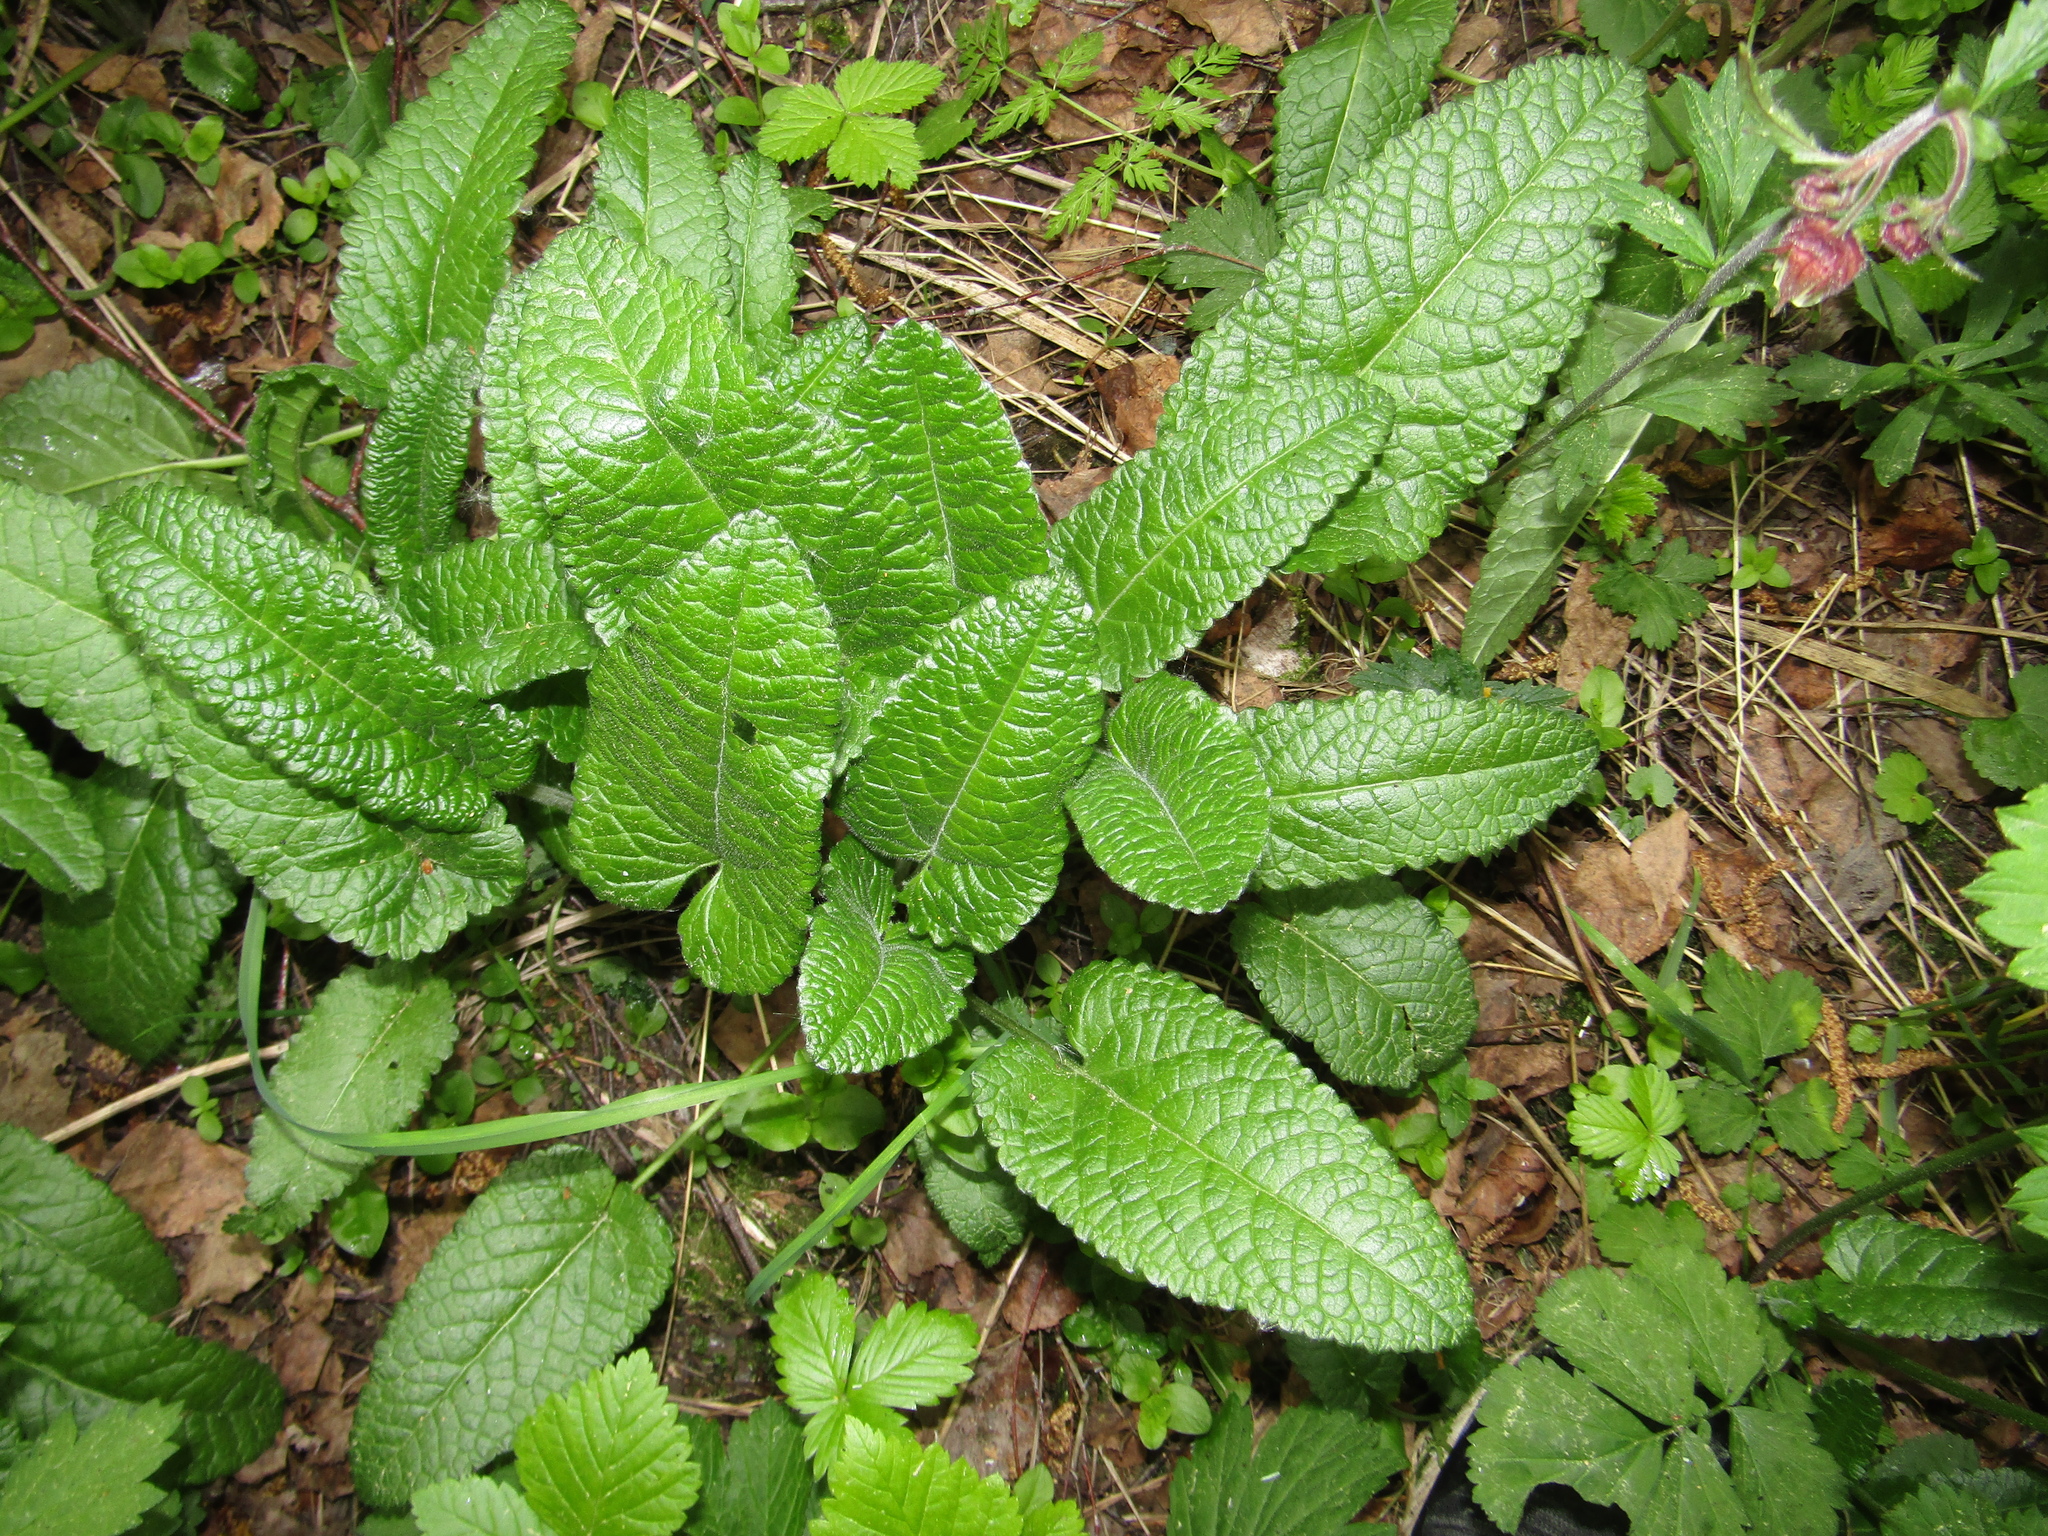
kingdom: Plantae
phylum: Tracheophyta
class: Magnoliopsida
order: Lamiales
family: Lamiaceae
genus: Betonica
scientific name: Betonica officinalis
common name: Bishop's-wort
